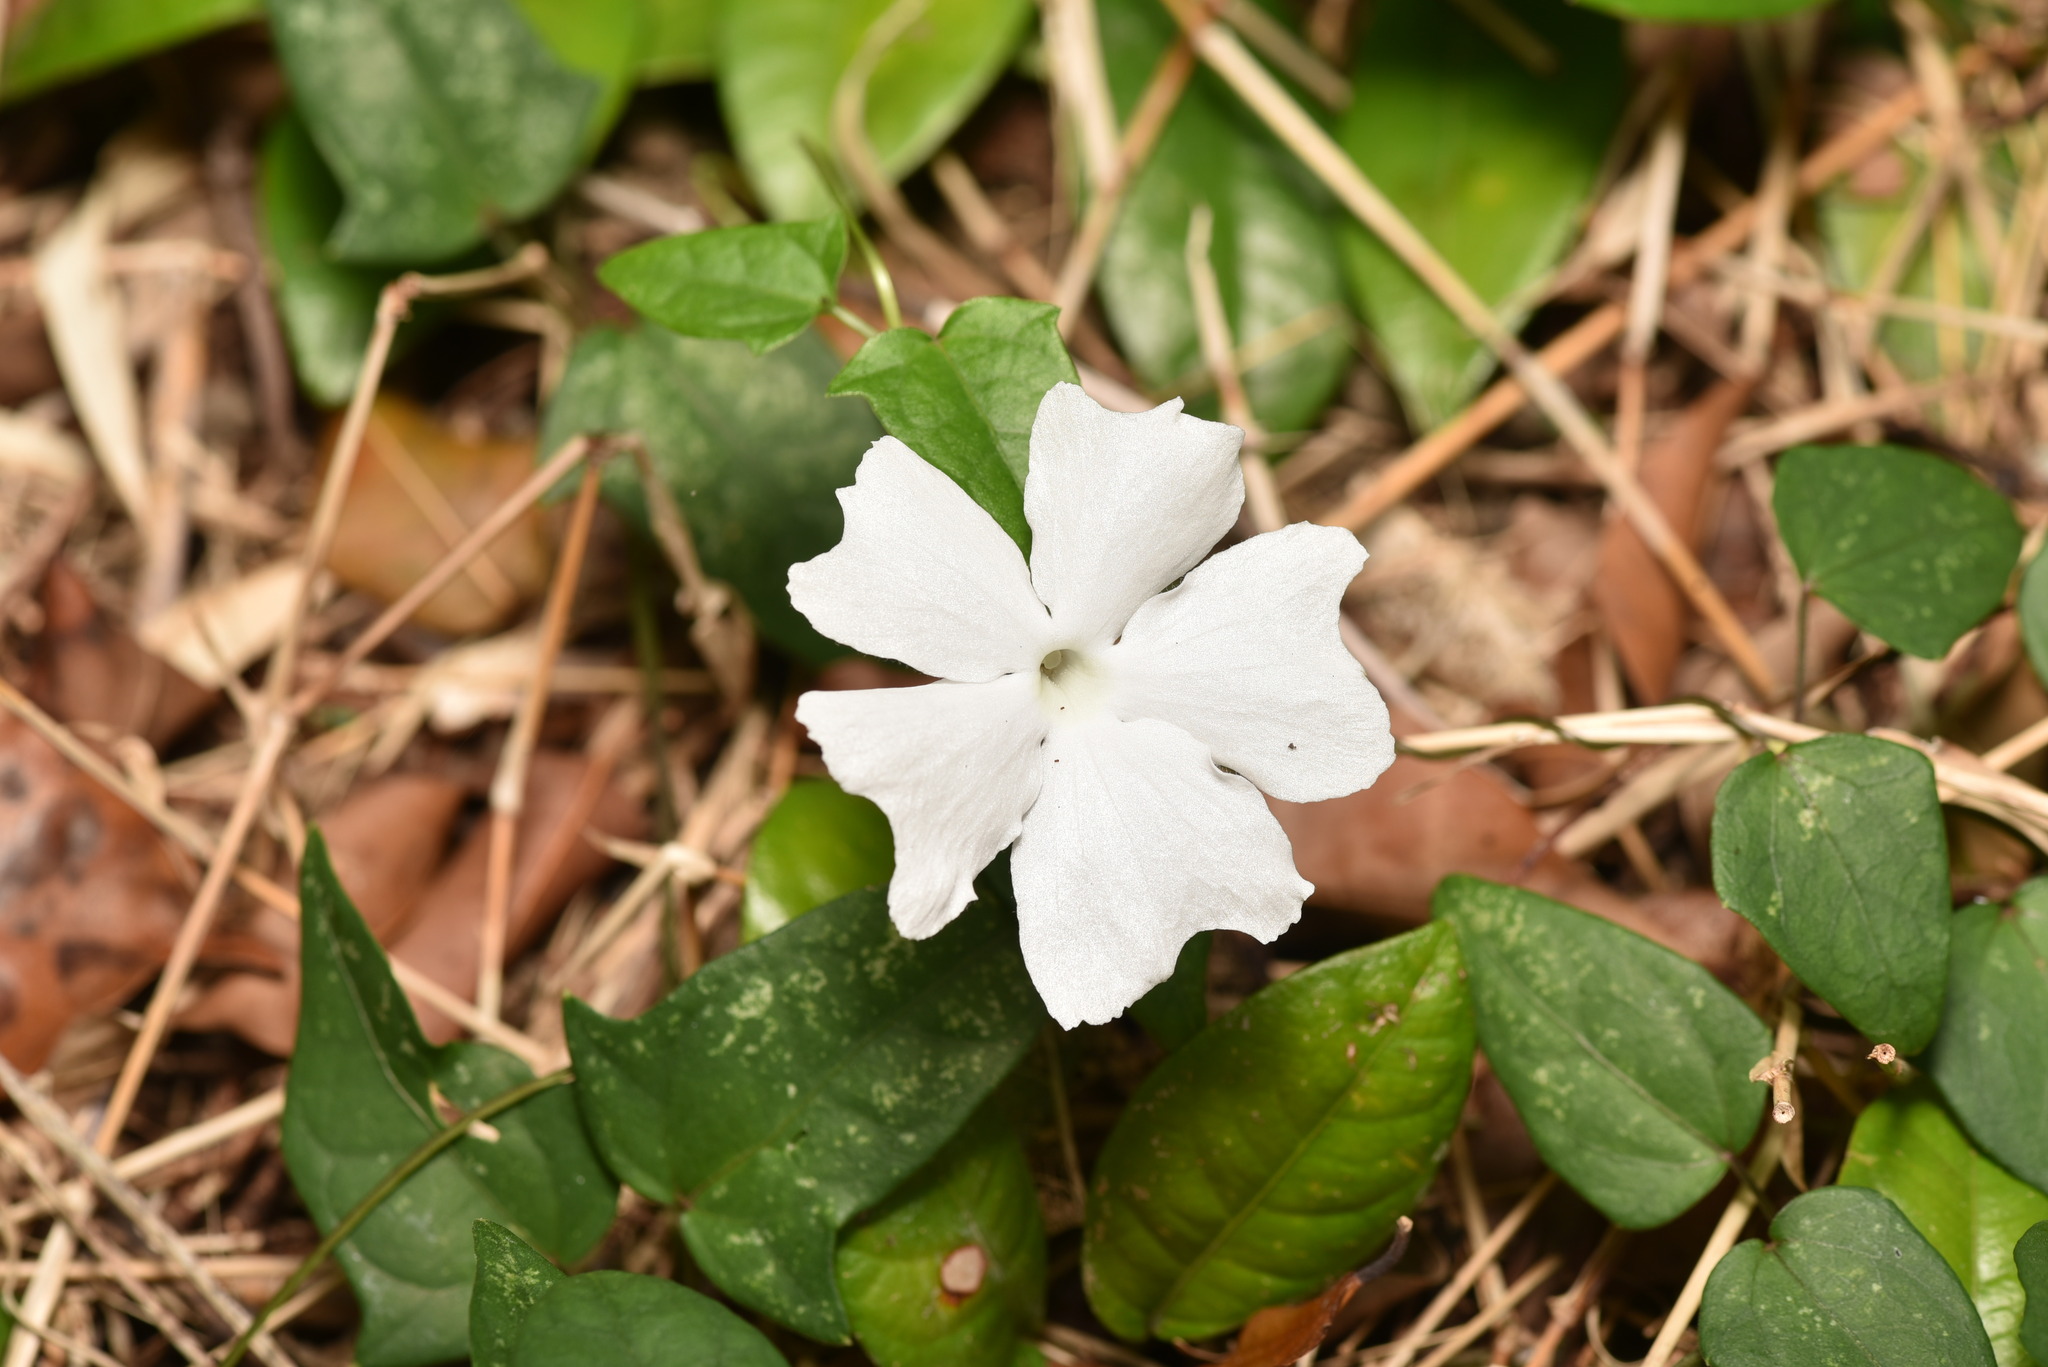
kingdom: Plantae
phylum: Tracheophyta
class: Magnoliopsida
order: Lamiales
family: Acanthaceae
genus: Thunbergia
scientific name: Thunbergia fragrans
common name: Whitelady
